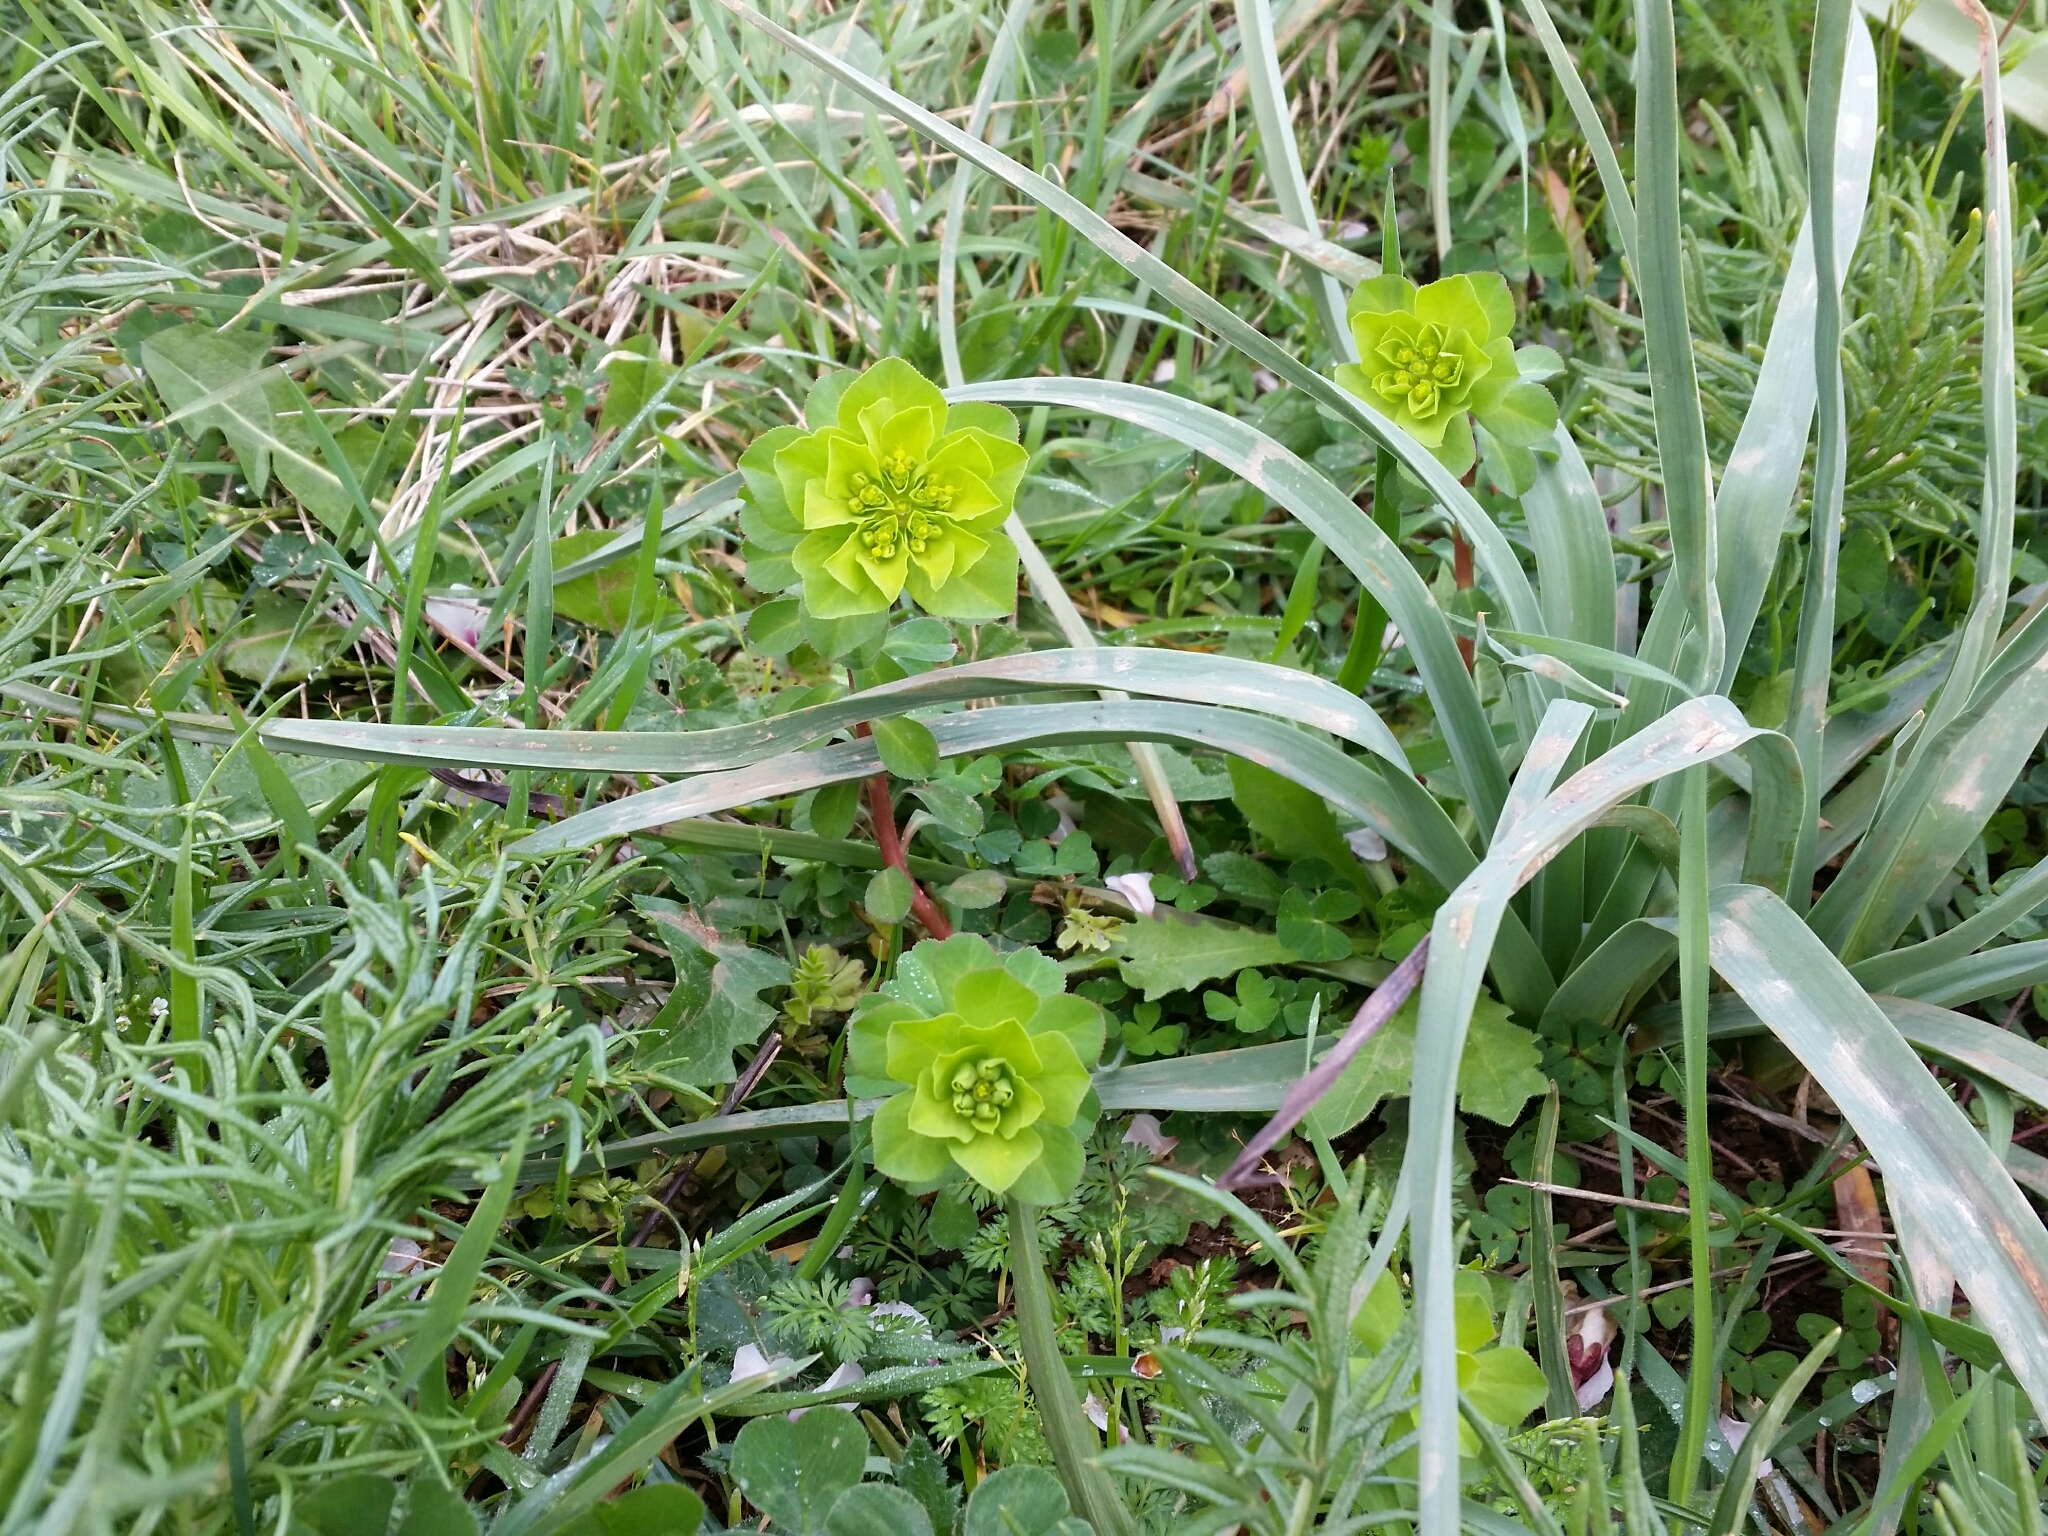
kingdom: Plantae
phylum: Tracheophyta
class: Magnoliopsida
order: Malpighiales
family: Euphorbiaceae
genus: Euphorbia
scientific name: Euphorbia helioscopia
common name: Sun spurge
